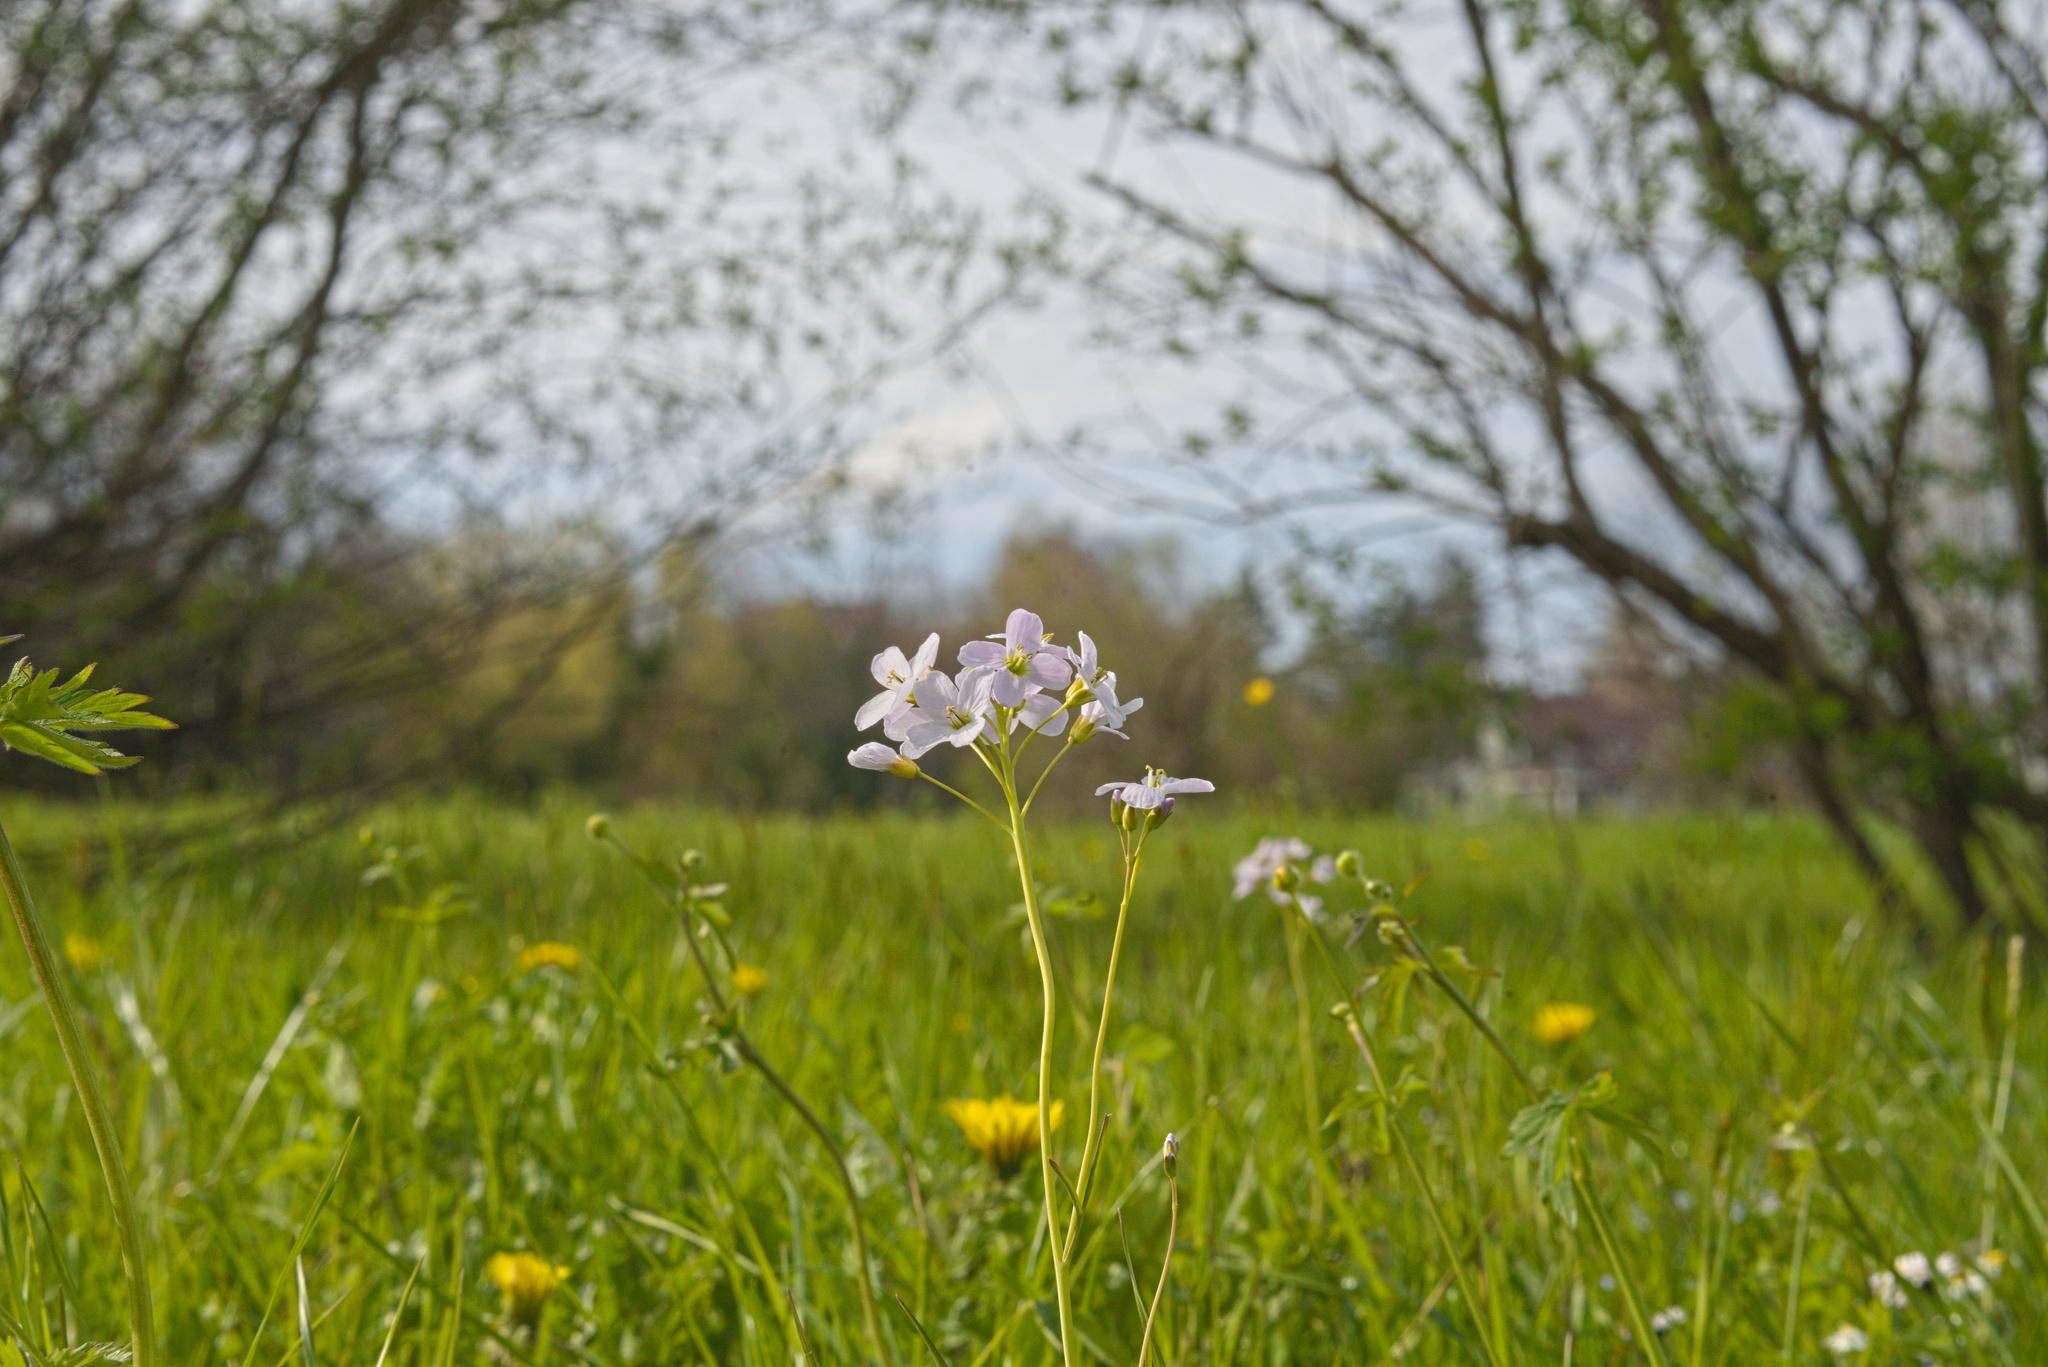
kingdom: Plantae
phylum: Tracheophyta
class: Magnoliopsida
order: Brassicales
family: Brassicaceae
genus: Cardamine
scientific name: Cardamine pratensis
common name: Cuckoo flower
